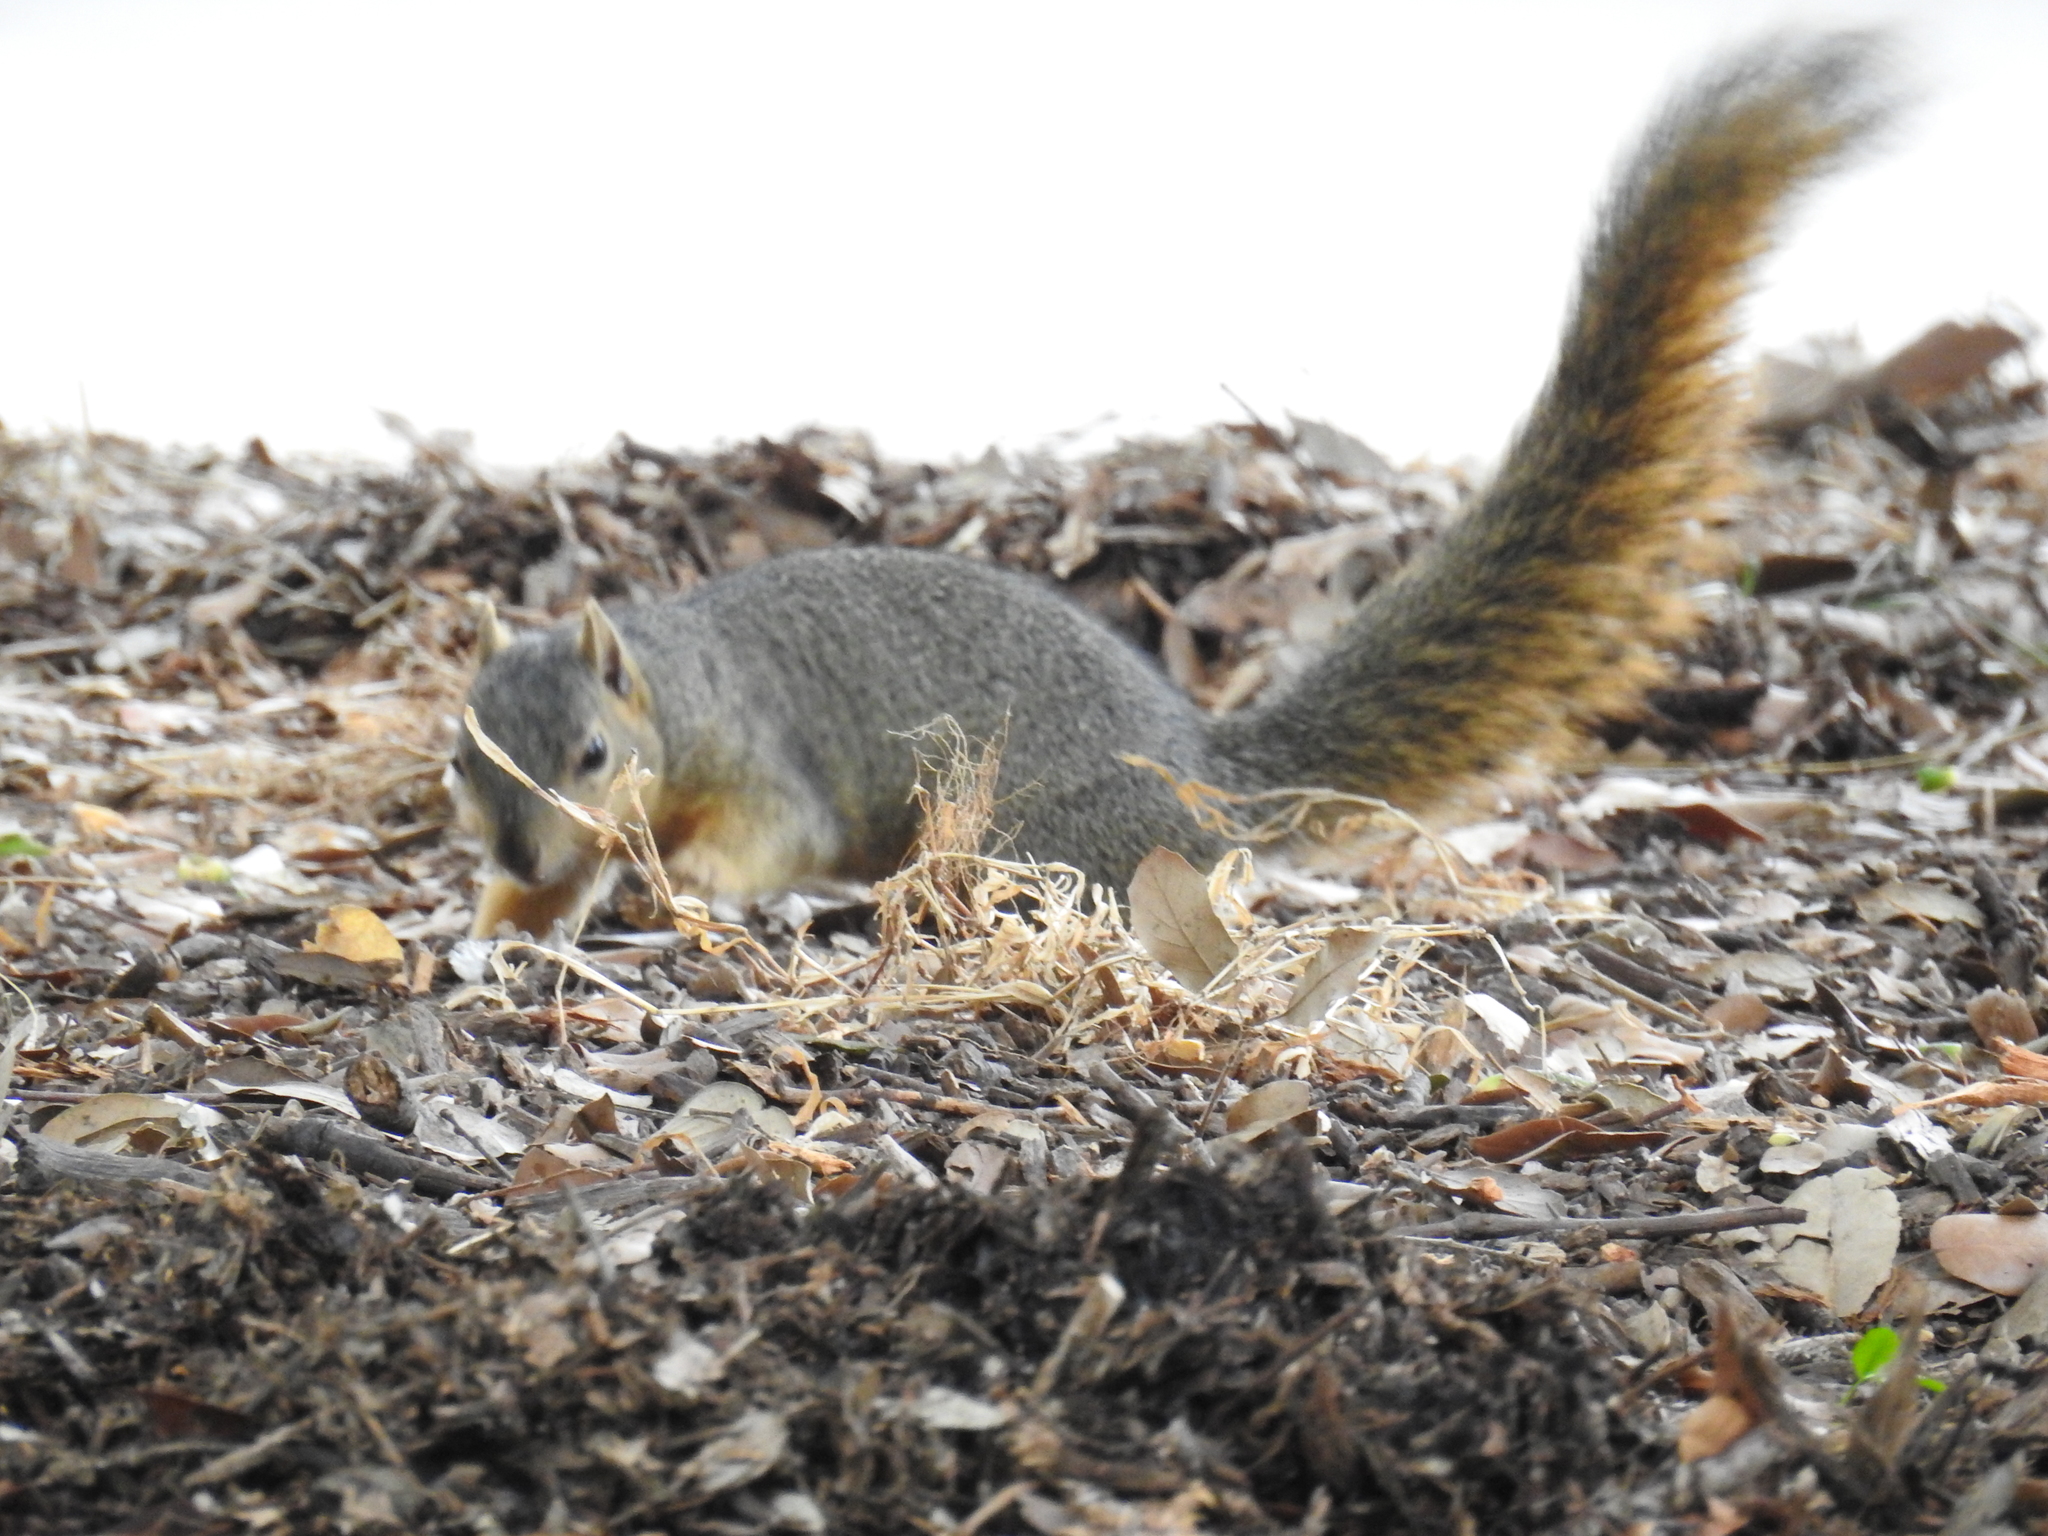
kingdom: Animalia
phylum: Chordata
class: Mammalia
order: Rodentia
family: Sciuridae
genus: Sciurus
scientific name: Sciurus niger
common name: Fox squirrel
